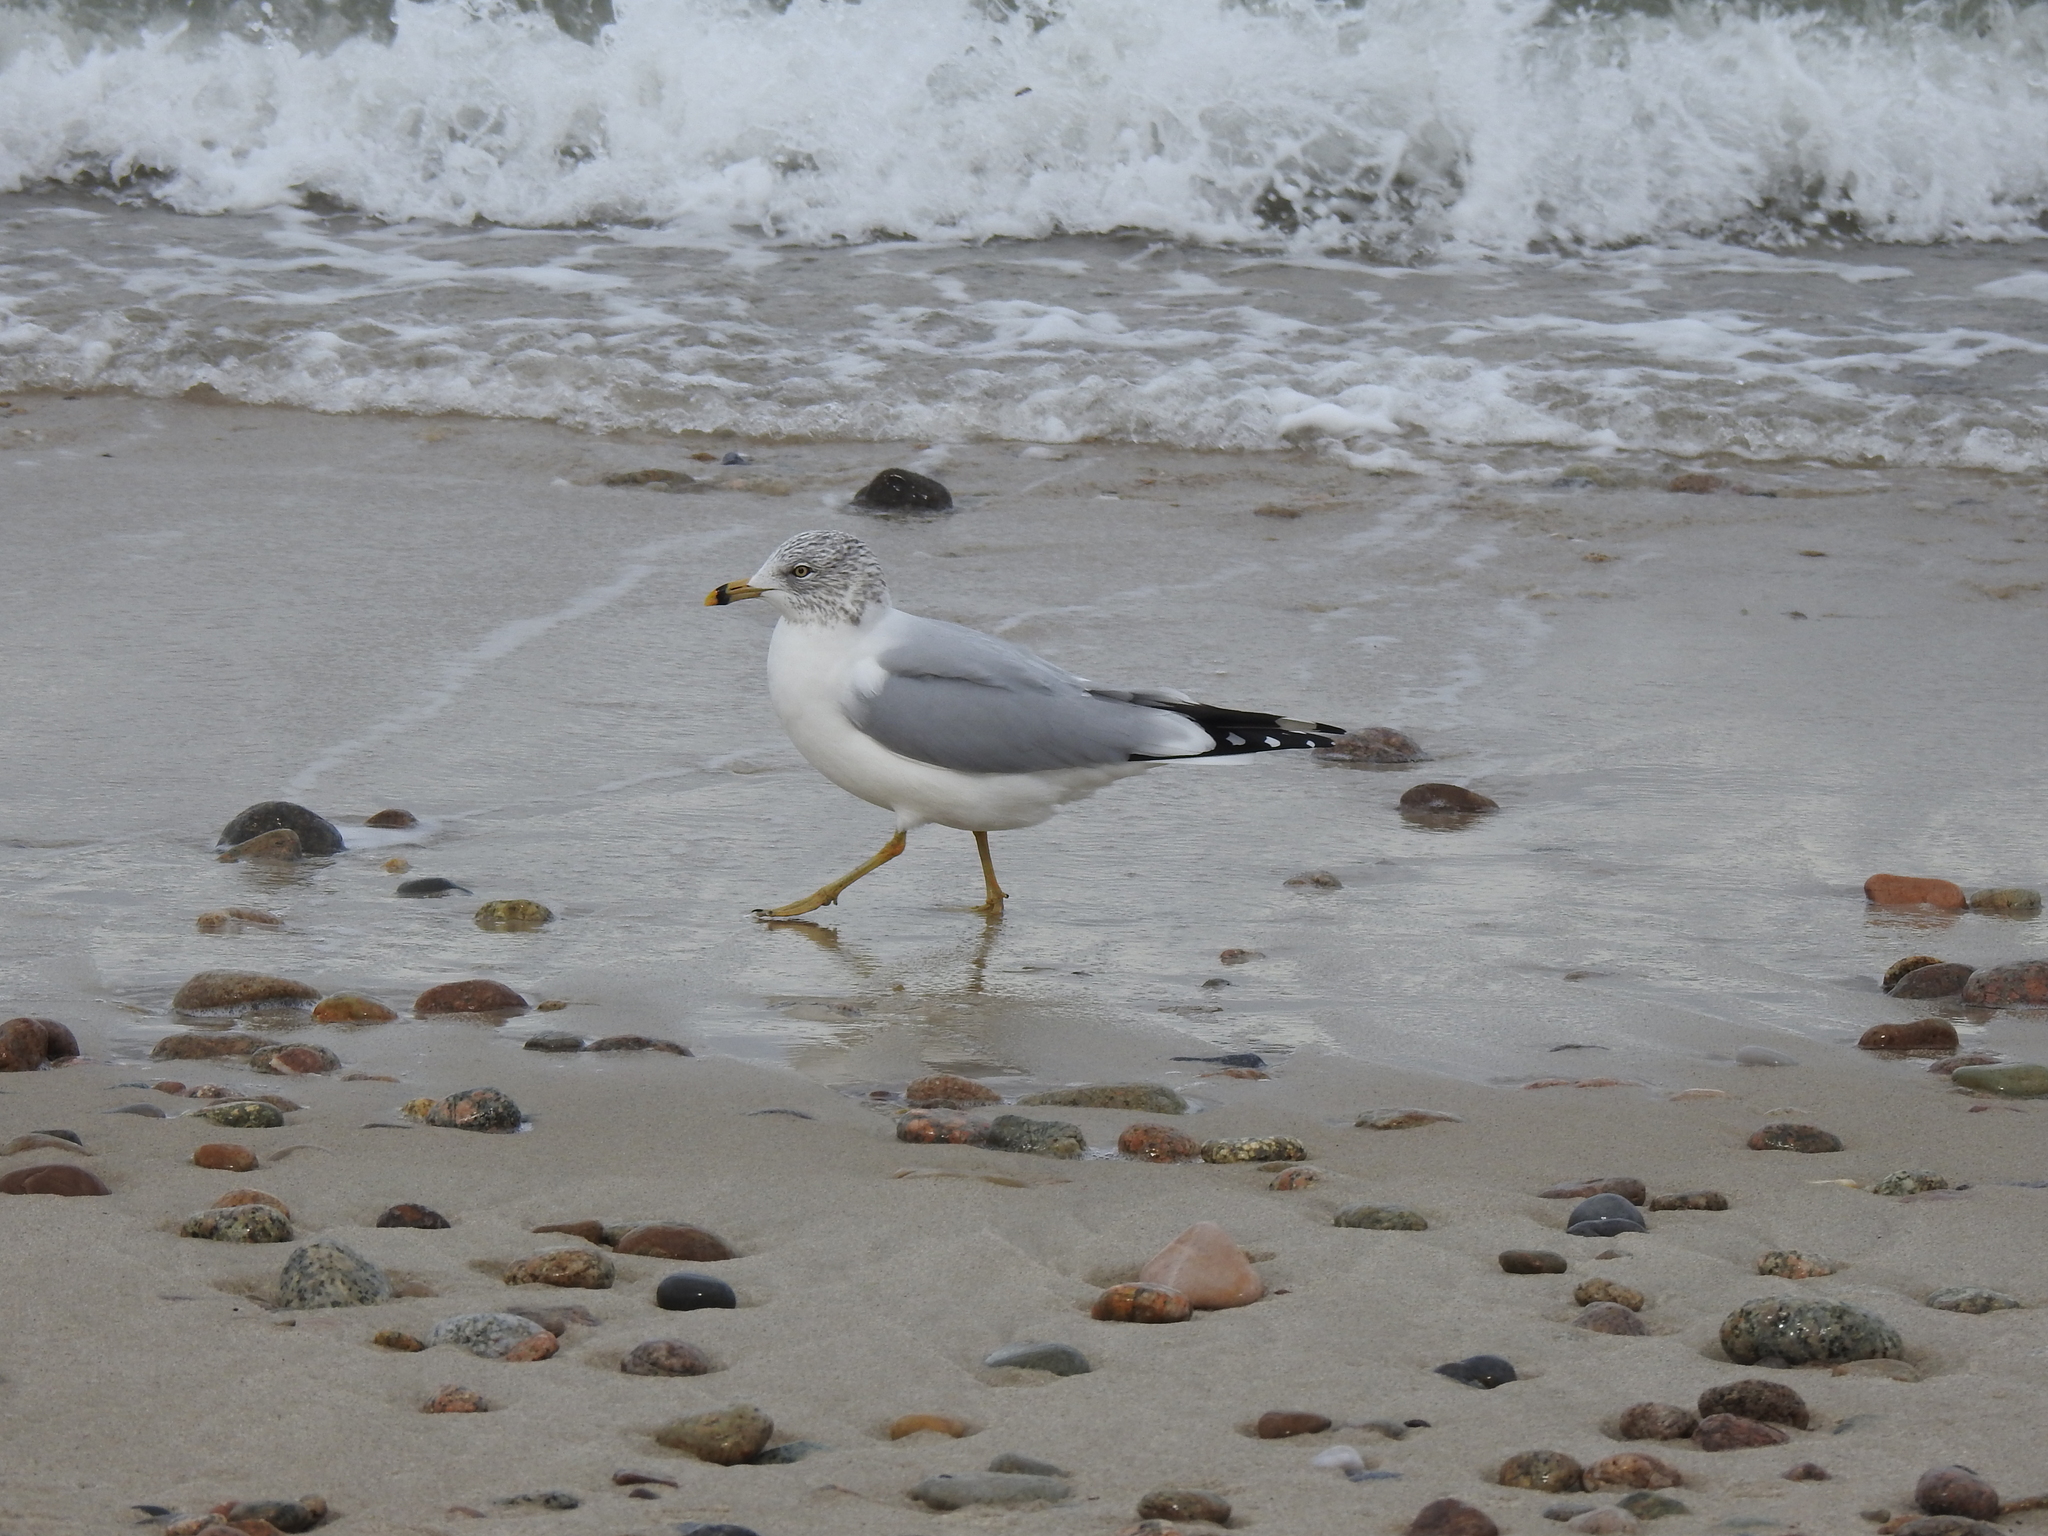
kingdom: Animalia
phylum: Chordata
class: Aves
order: Charadriiformes
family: Laridae
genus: Larus
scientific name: Larus delawarensis
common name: Ring-billed gull
